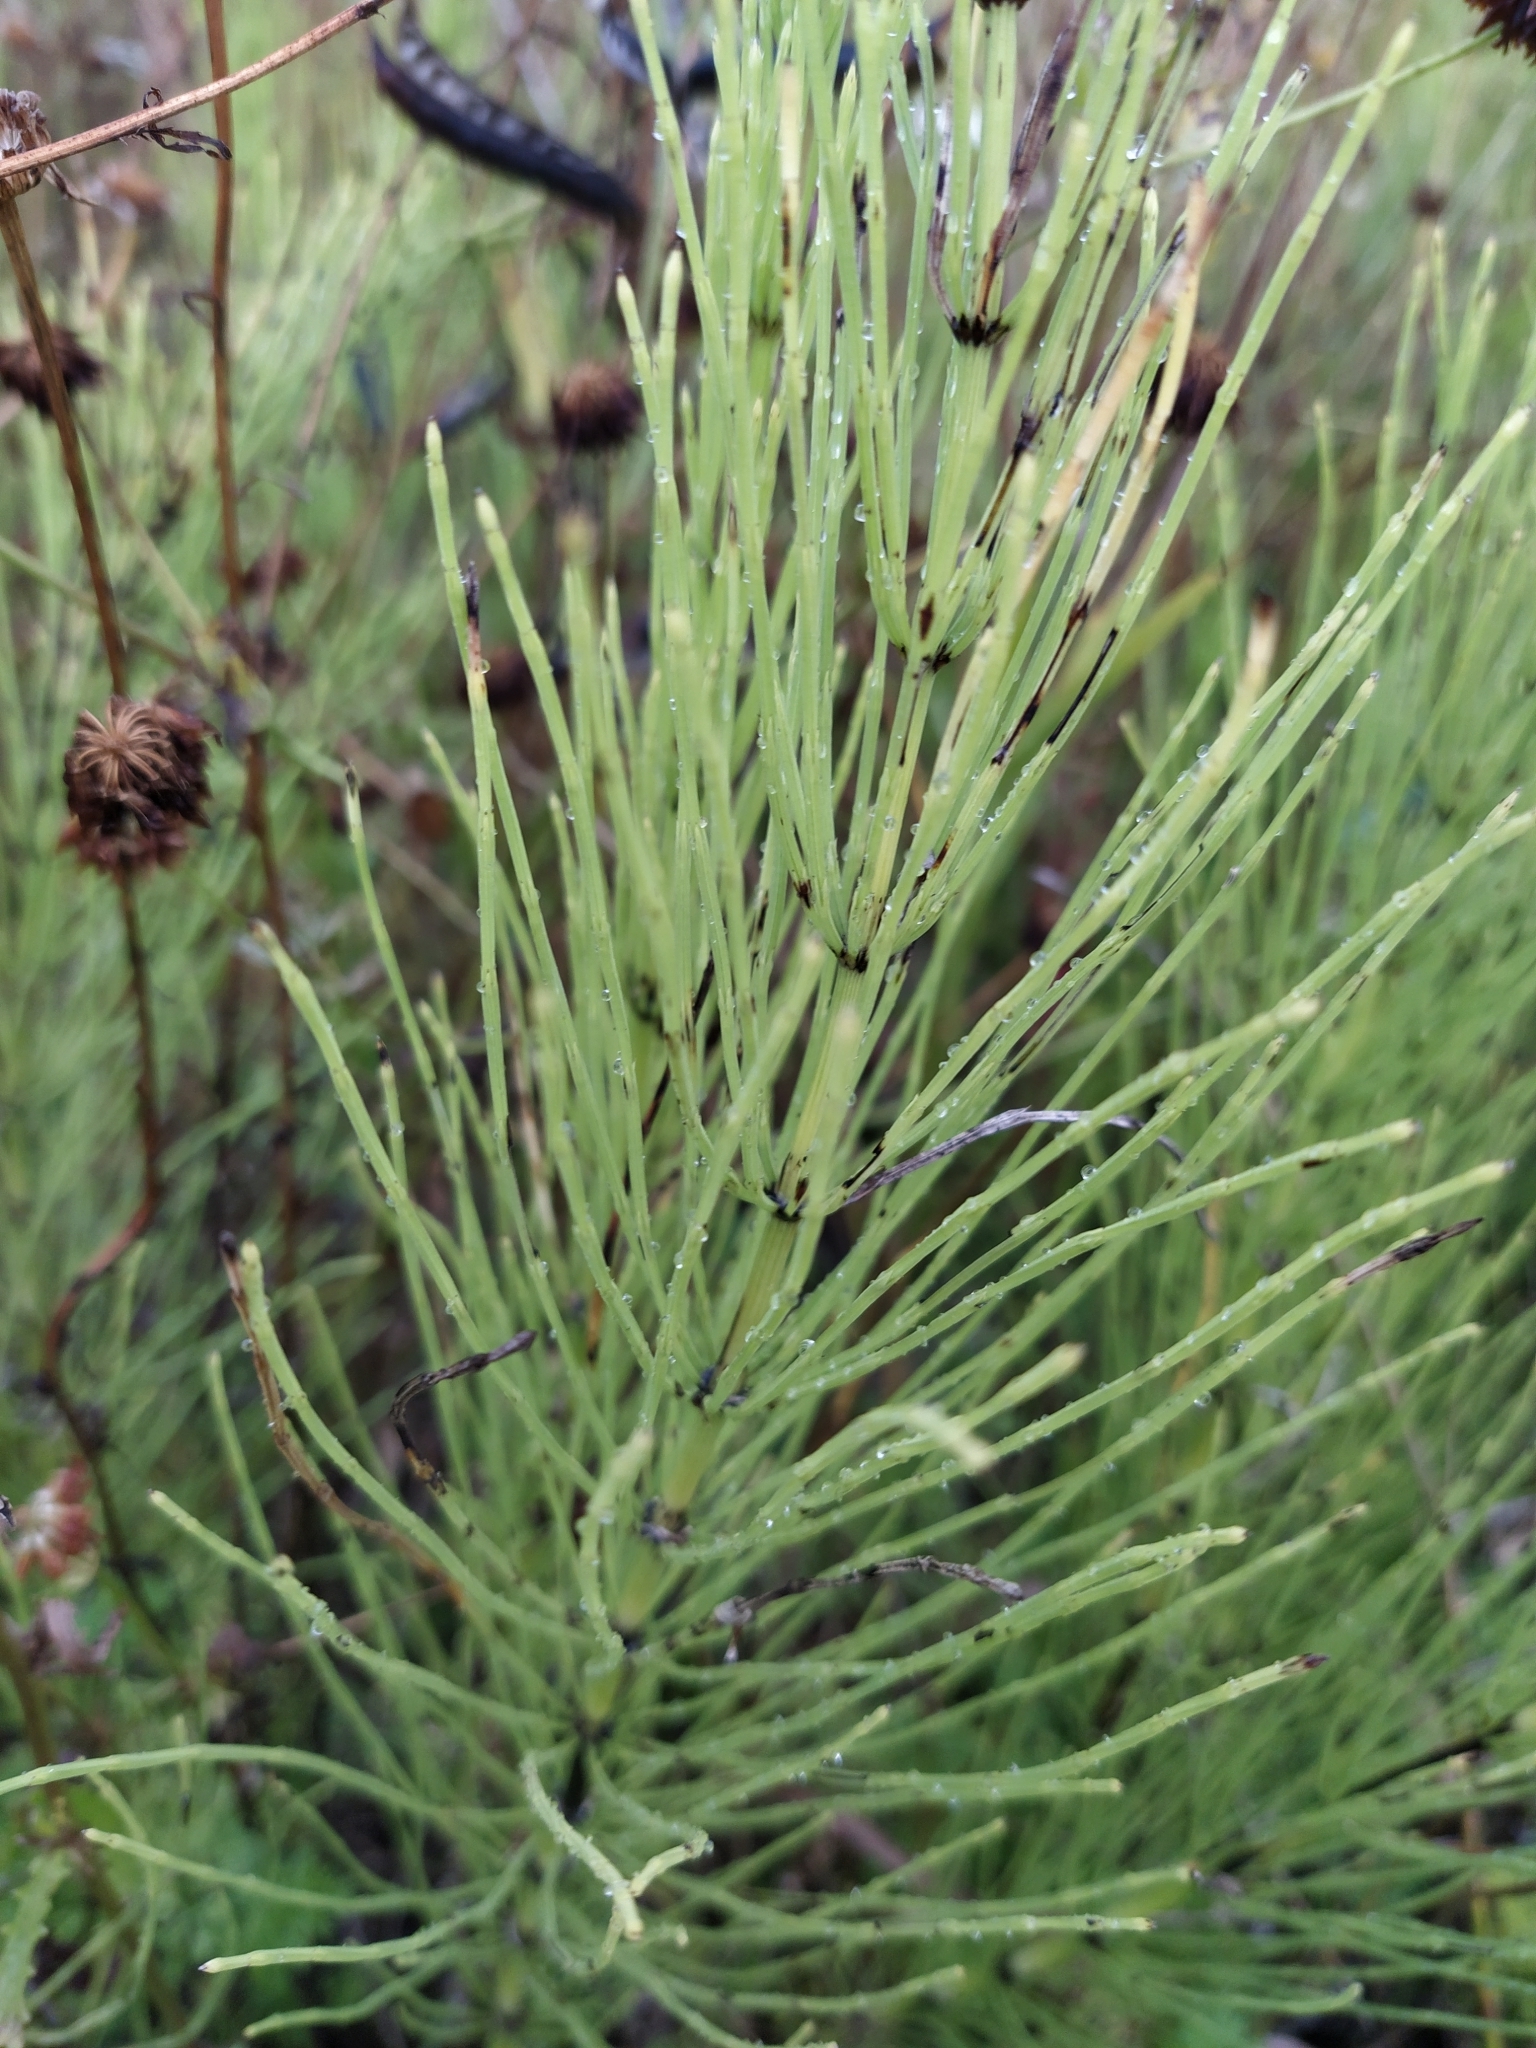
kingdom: Plantae
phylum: Tracheophyta
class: Polypodiopsida
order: Equisetales
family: Equisetaceae
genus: Equisetum
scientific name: Equisetum arvense
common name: Field horsetail
